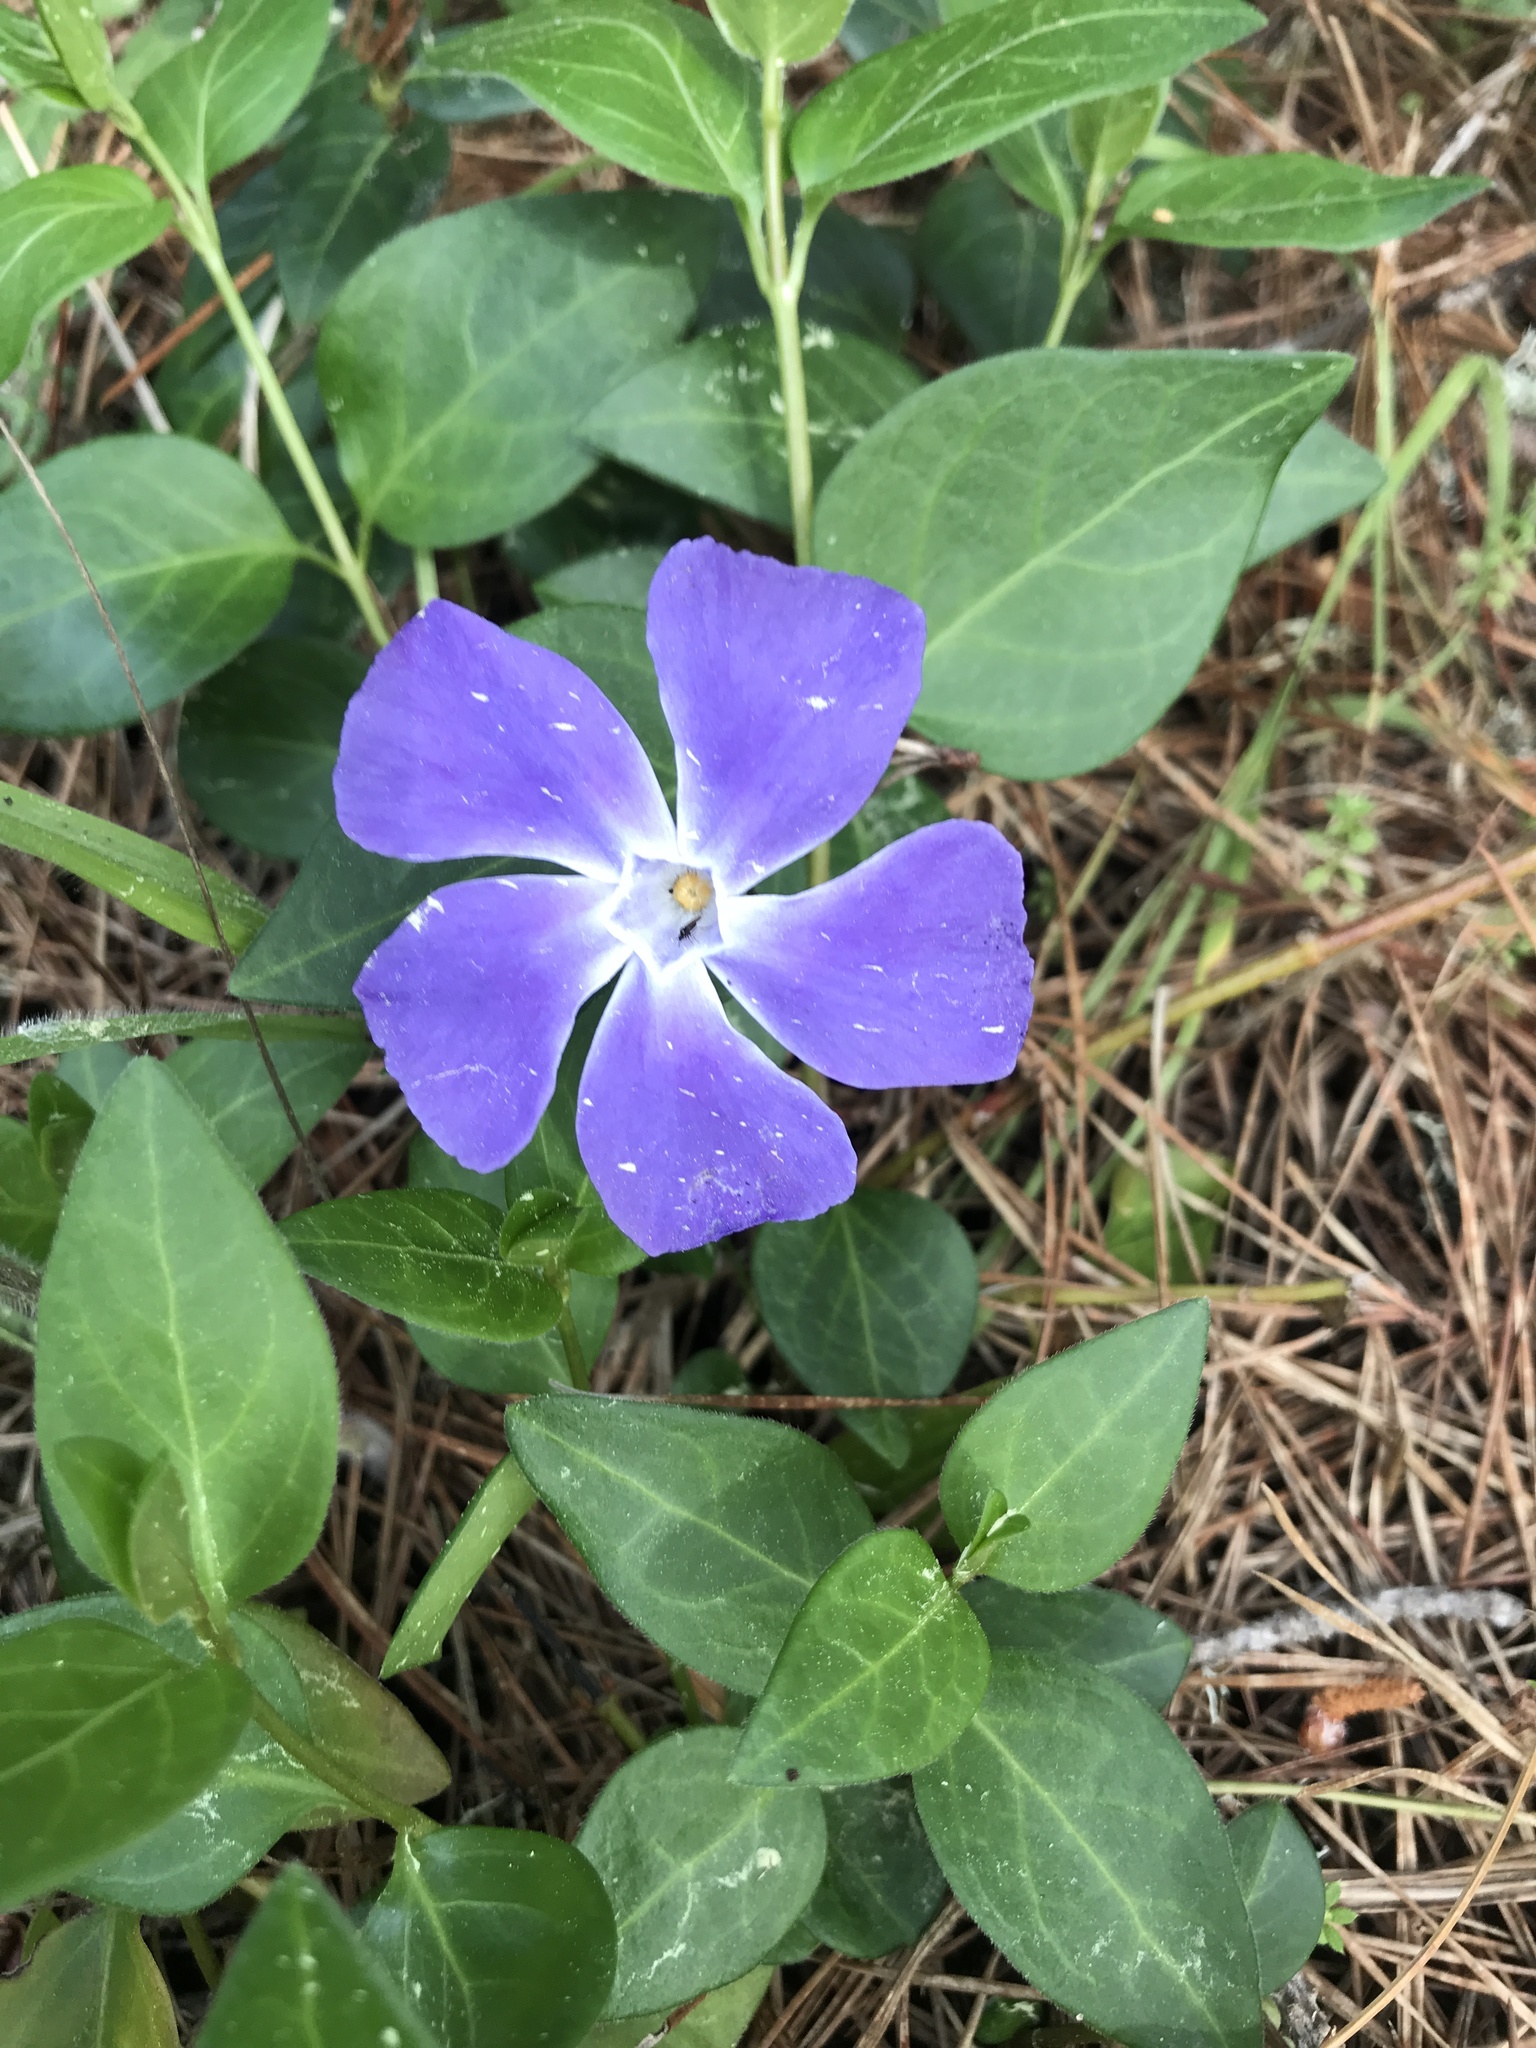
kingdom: Plantae
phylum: Tracheophyta
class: Magnoliopsida
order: Gentianales
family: Apocynaceae
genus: Vinca
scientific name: Vinca major
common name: Greater periwinkle
